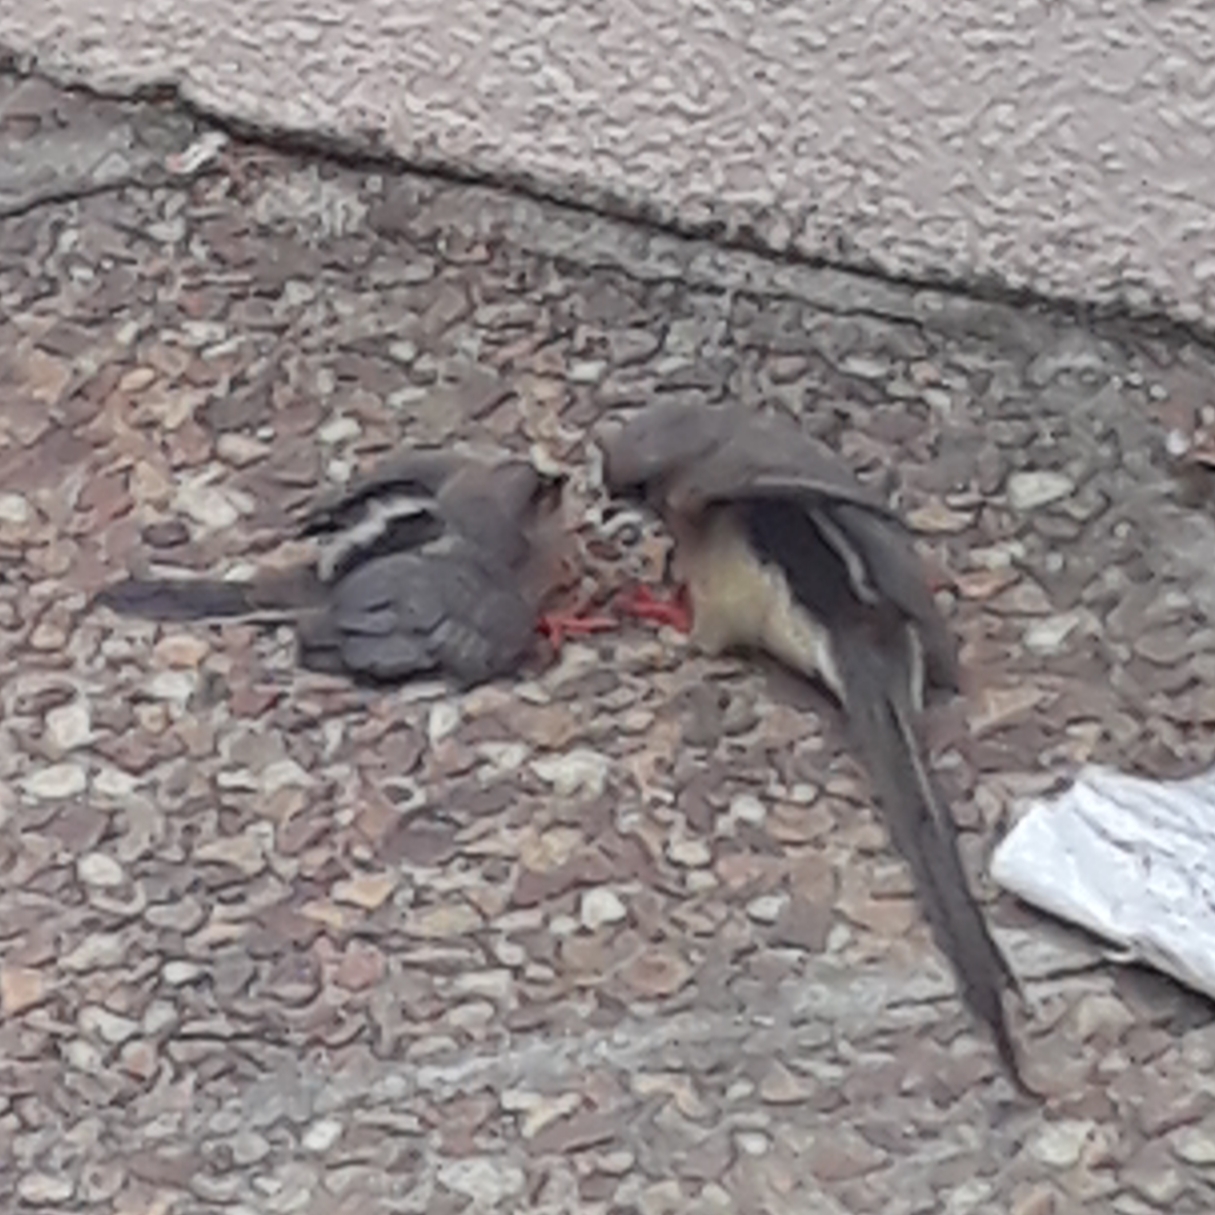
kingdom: Animalia
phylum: Chordata
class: Aves
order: Coliiformes
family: Coliidae
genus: Colius
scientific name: Colius colius
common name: White-backed mousebird
